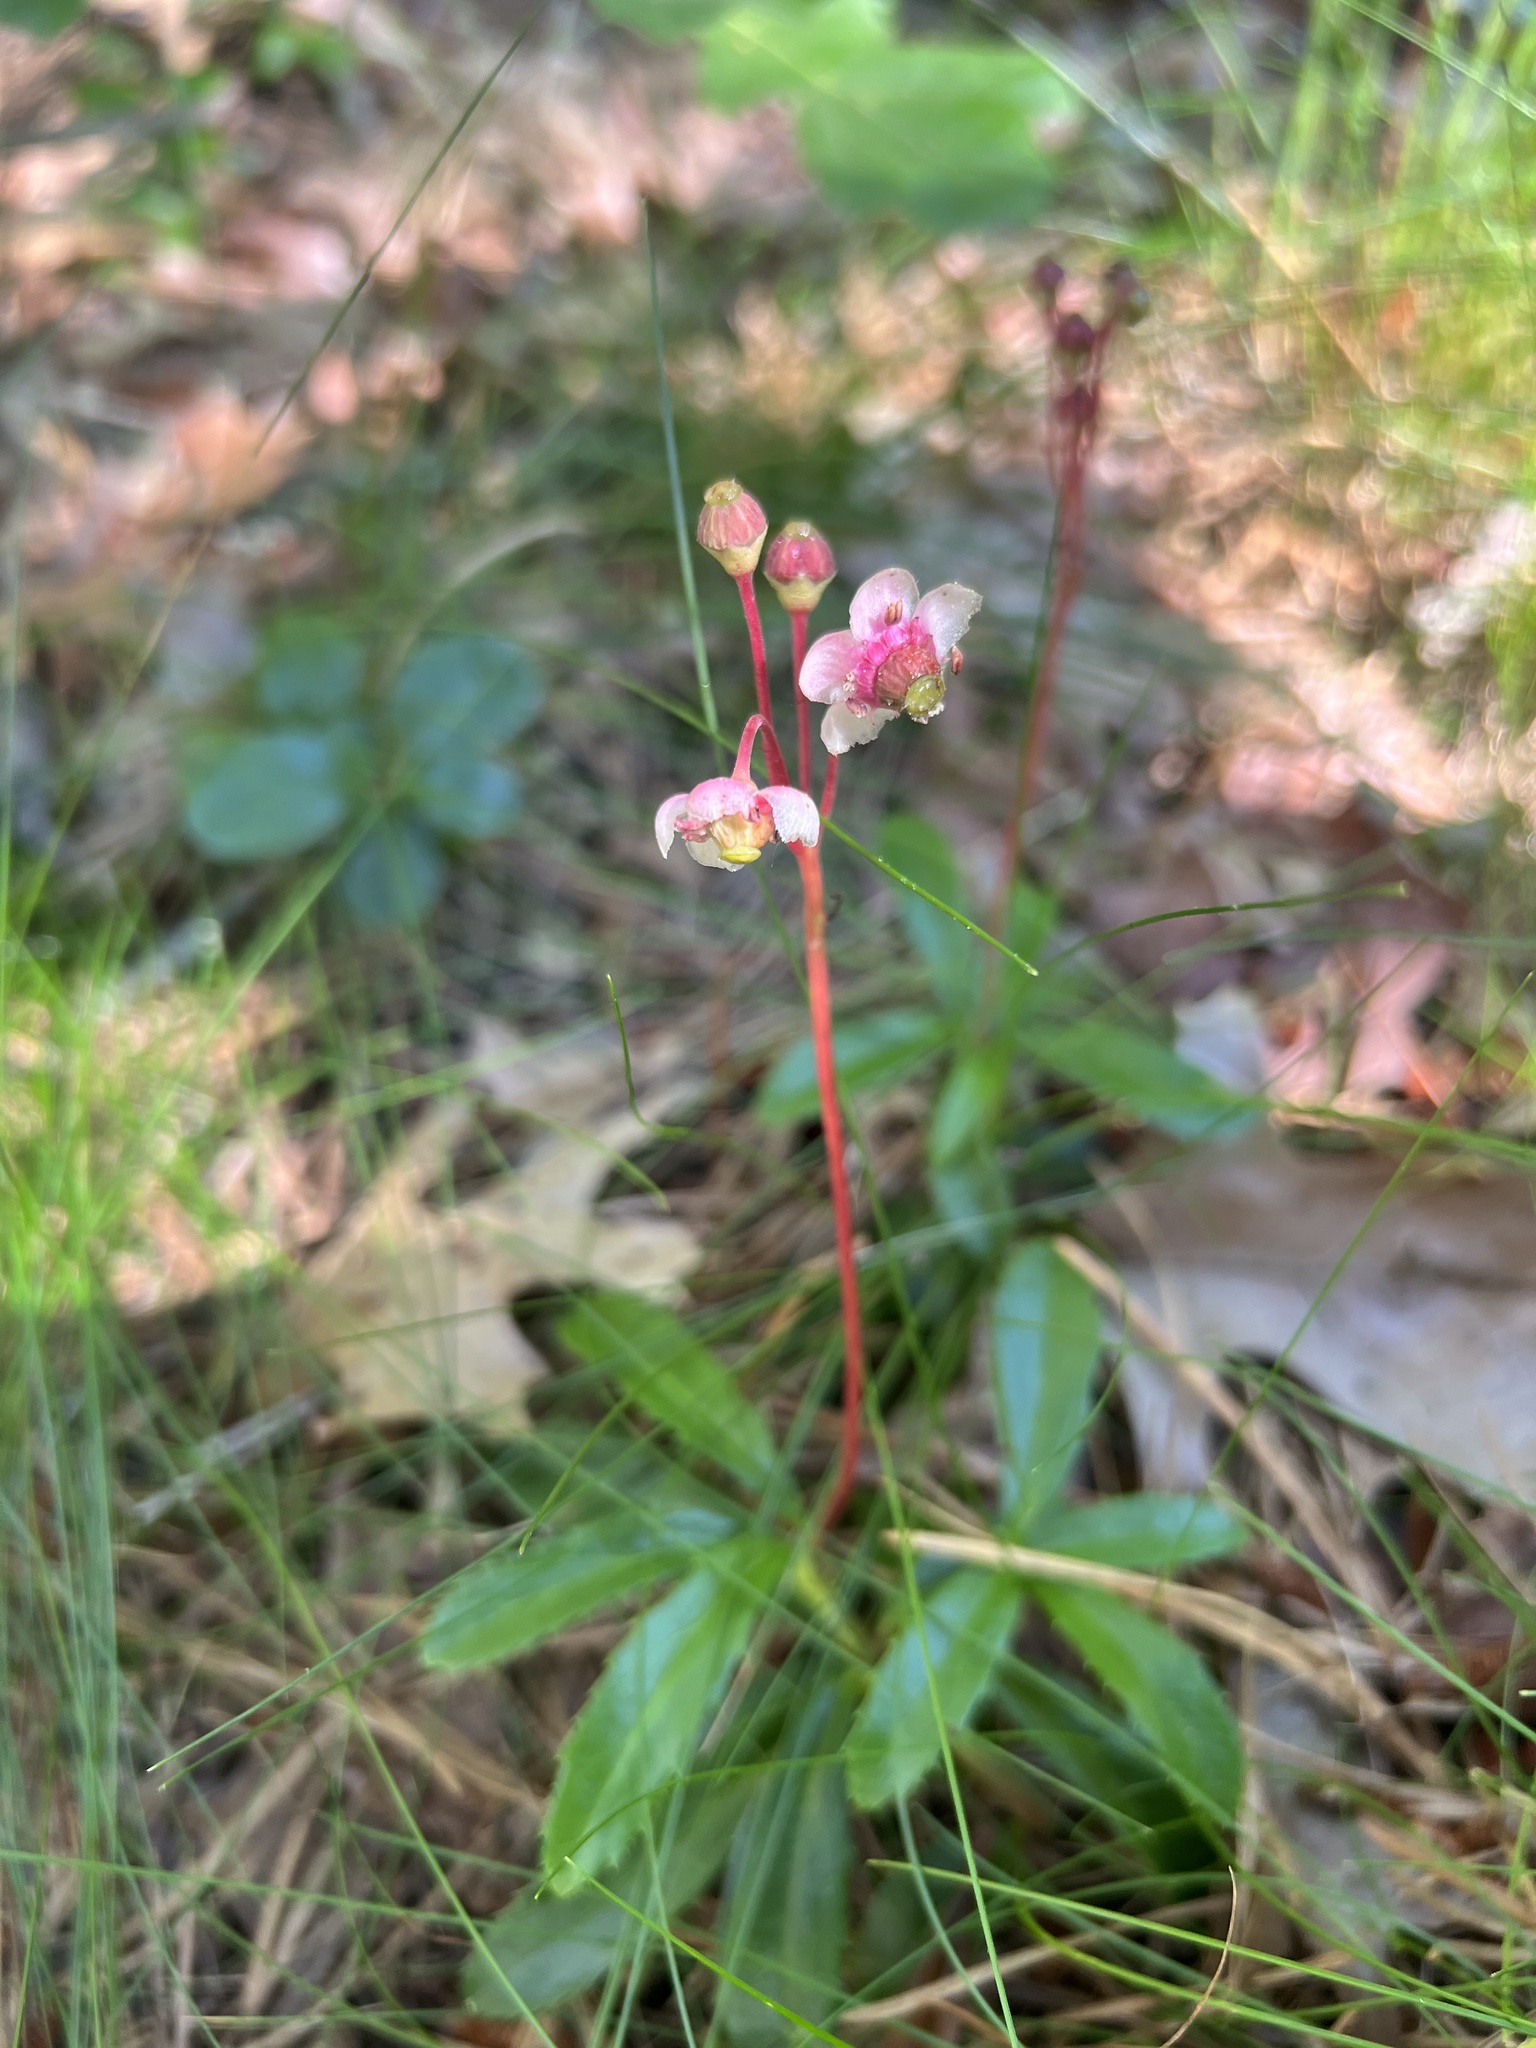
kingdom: Plantae
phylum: Tracheophyta
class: Magnoliopsida
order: Ericales
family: Ericaceae
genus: Chimaphila
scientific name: Chimaphila umbellata
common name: Pipsissewa
